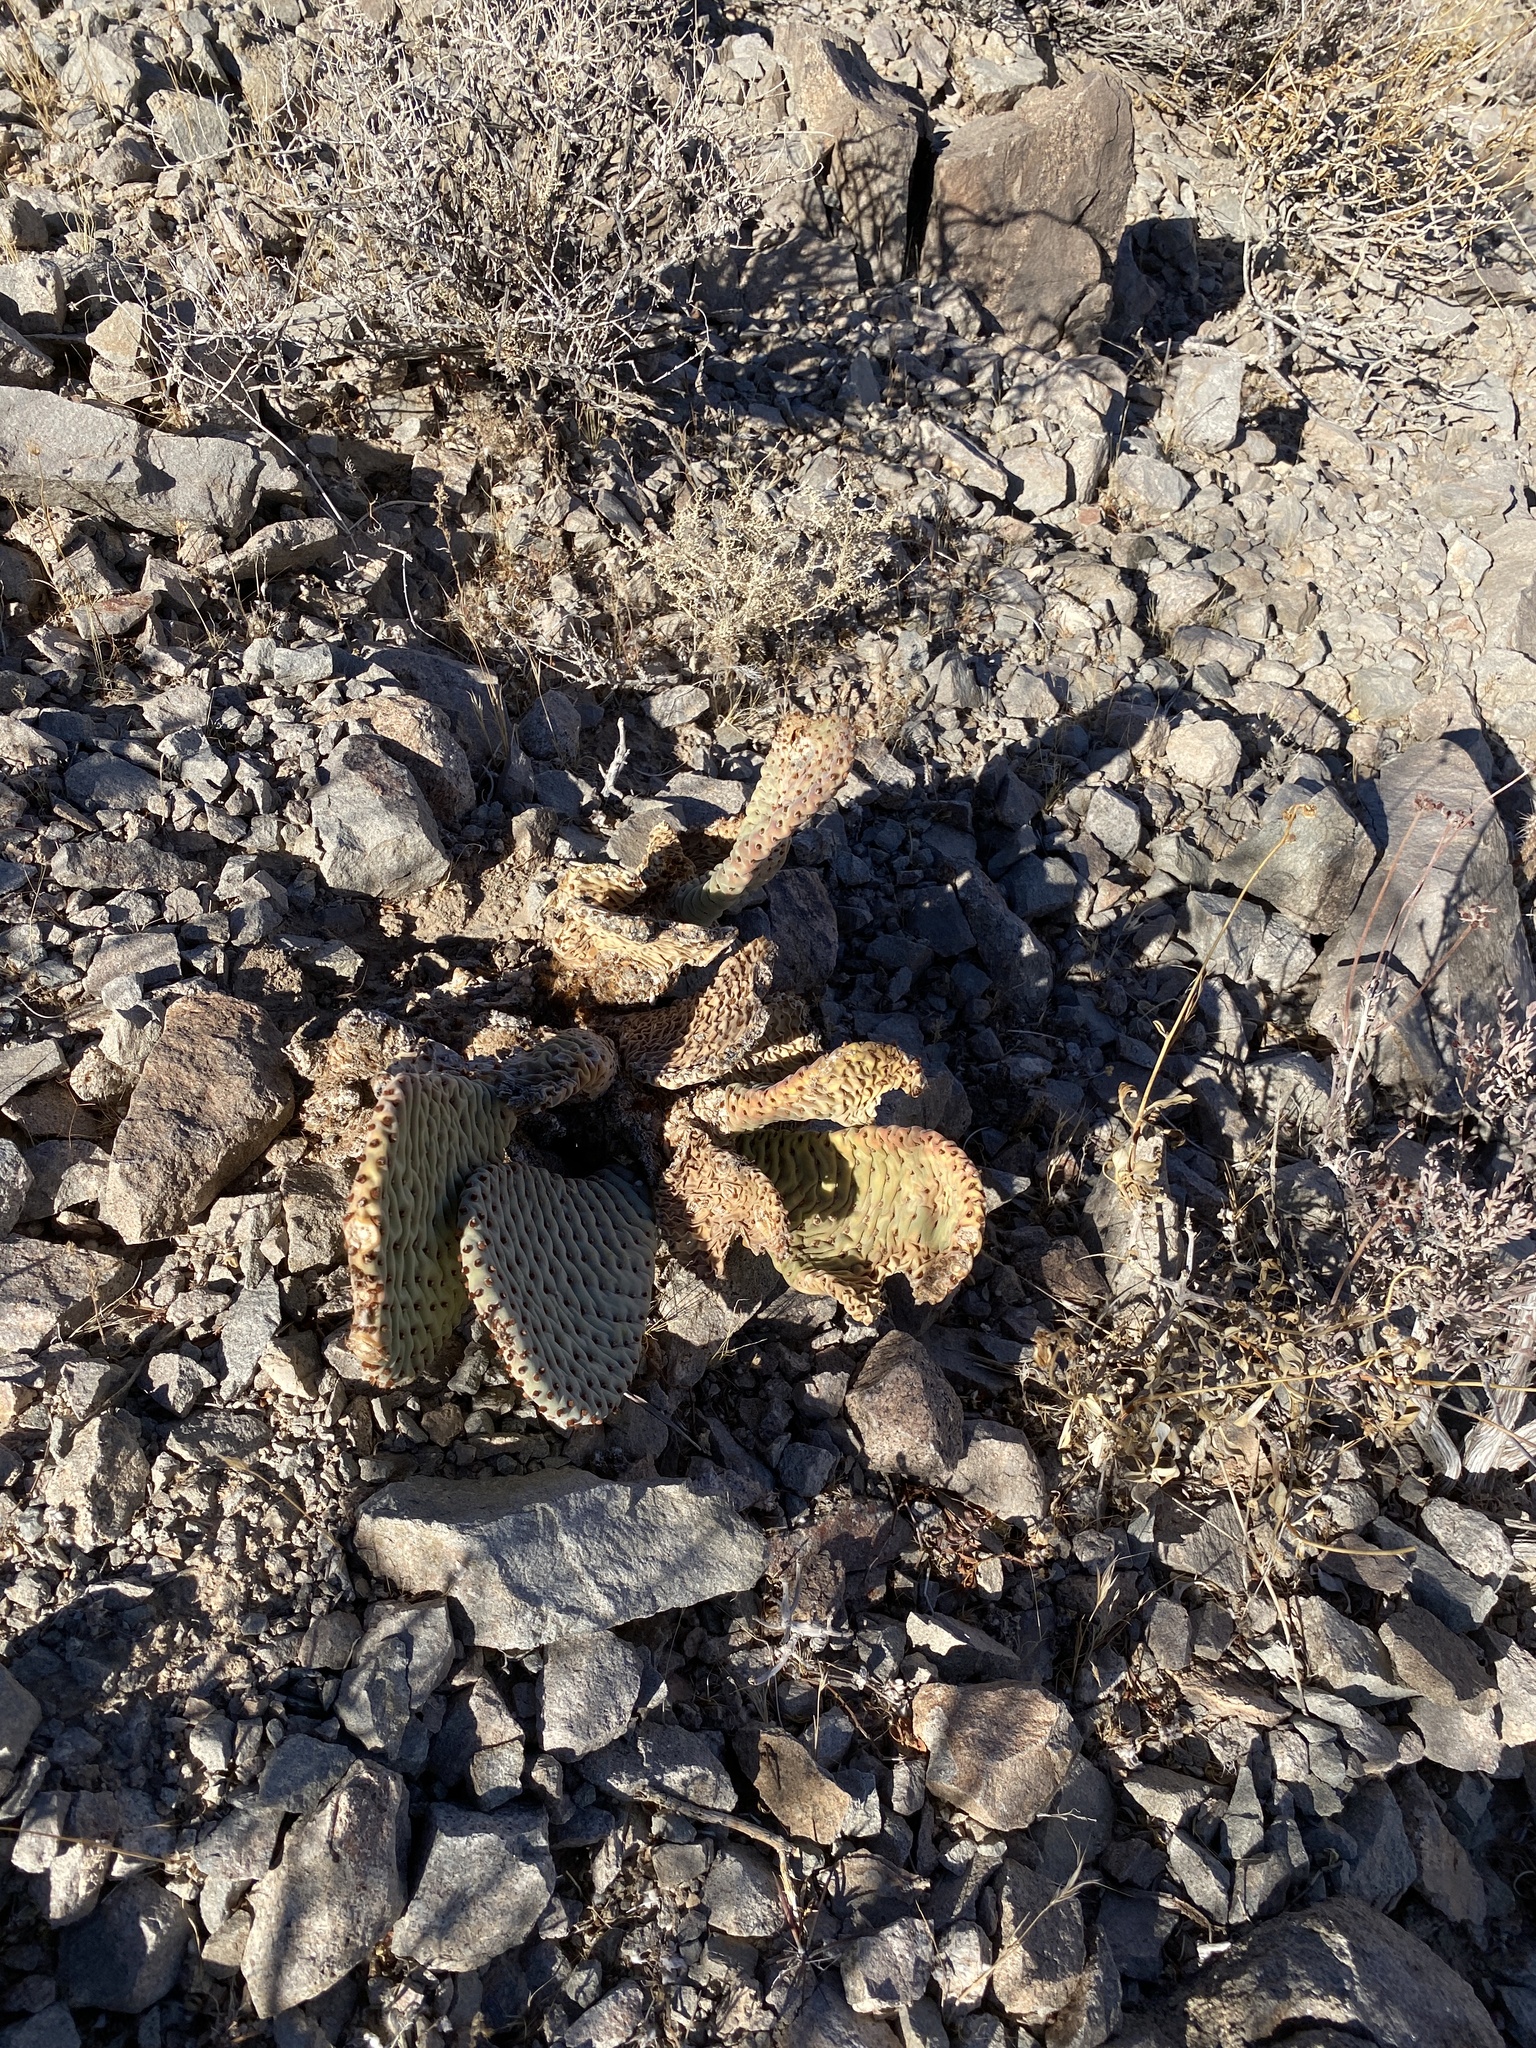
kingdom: Plantae
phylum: Tracheophyta
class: Magnoliopsida
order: Caryophyllales
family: Cactaceae
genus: Opuntia
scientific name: Opuntia basilaris
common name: Beavertail prickly-pear
